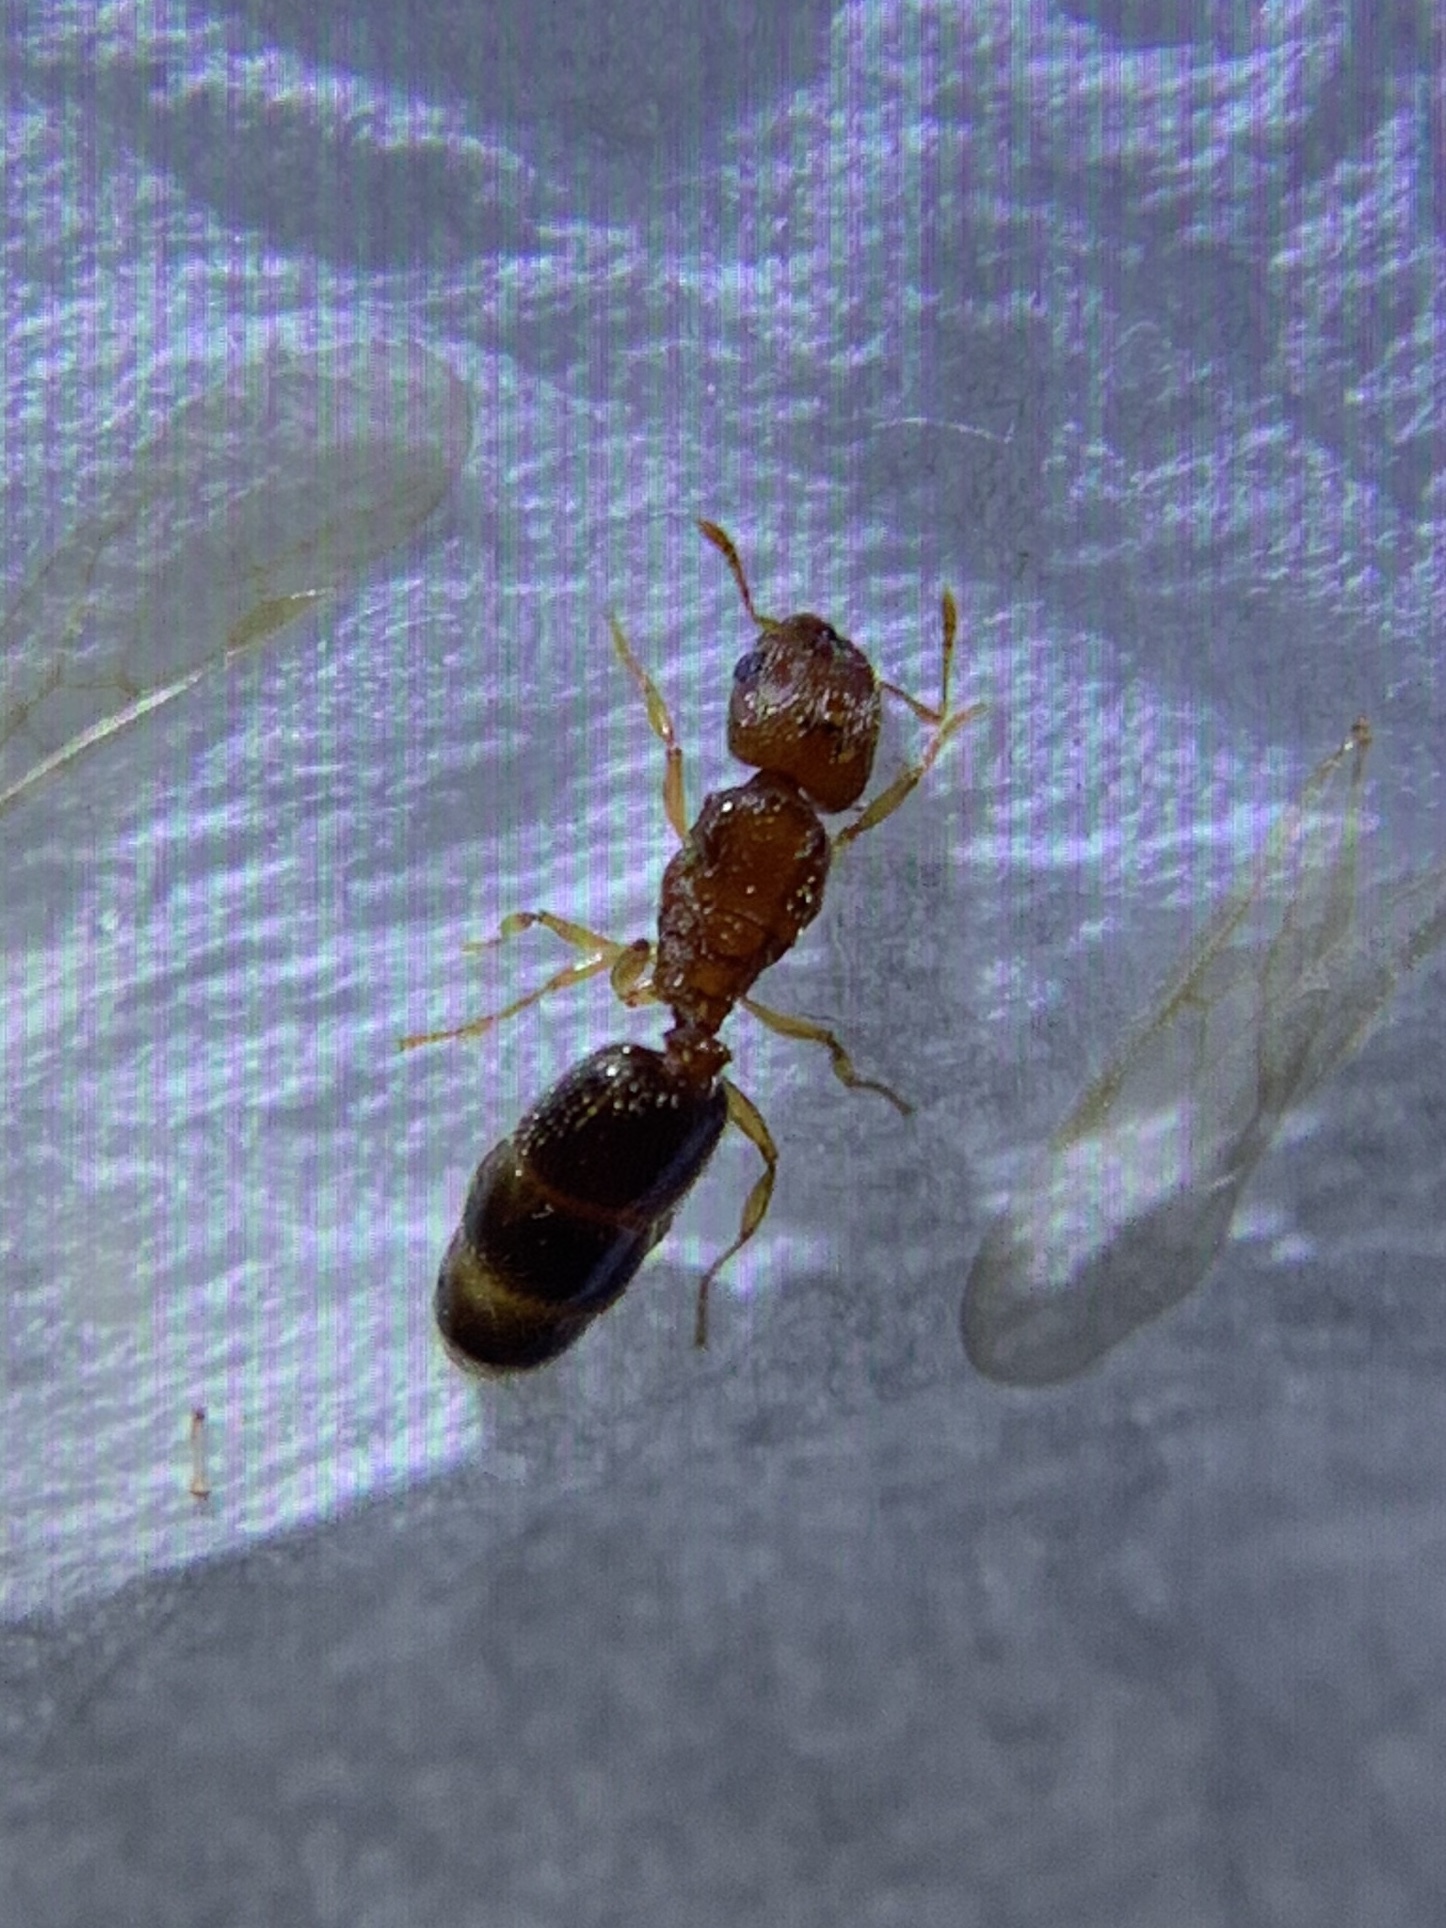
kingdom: Animalia
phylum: Arthropoda
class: Insecta
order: Hymenoptera
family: Formicidae
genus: Pheidole
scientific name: Pheidole parva
